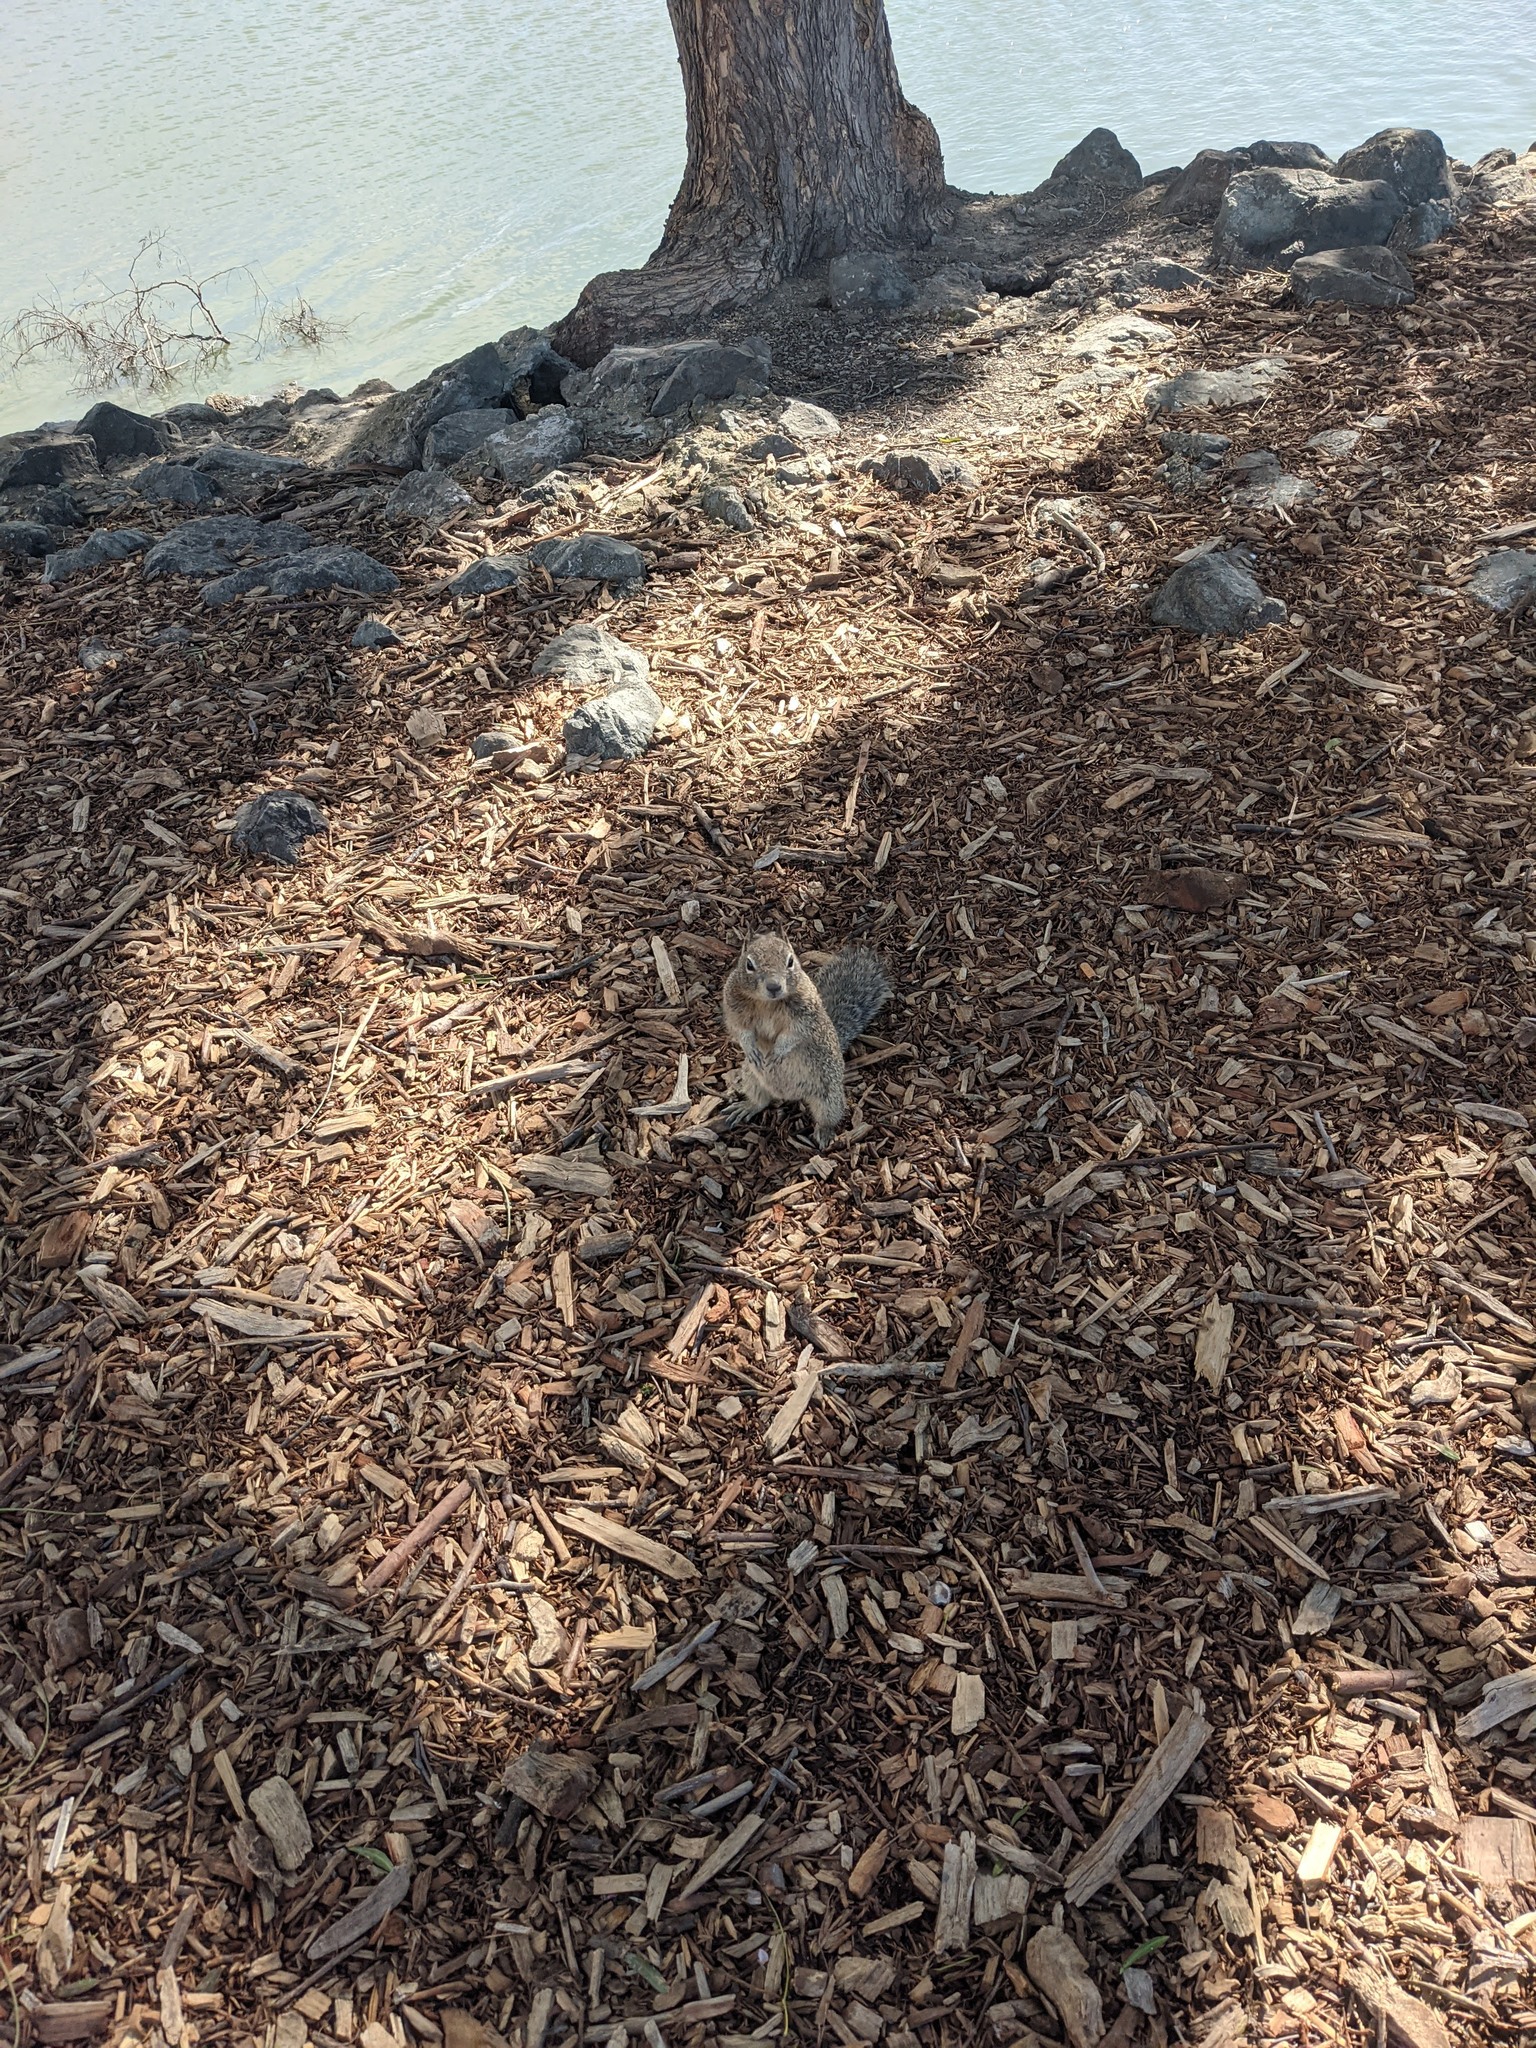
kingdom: Animalia
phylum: Chordata
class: Mammalia
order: Rodentia
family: Sciuridae
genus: Otospermophilus
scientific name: Otospermophilus beecheyi
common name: California ground squirrel
